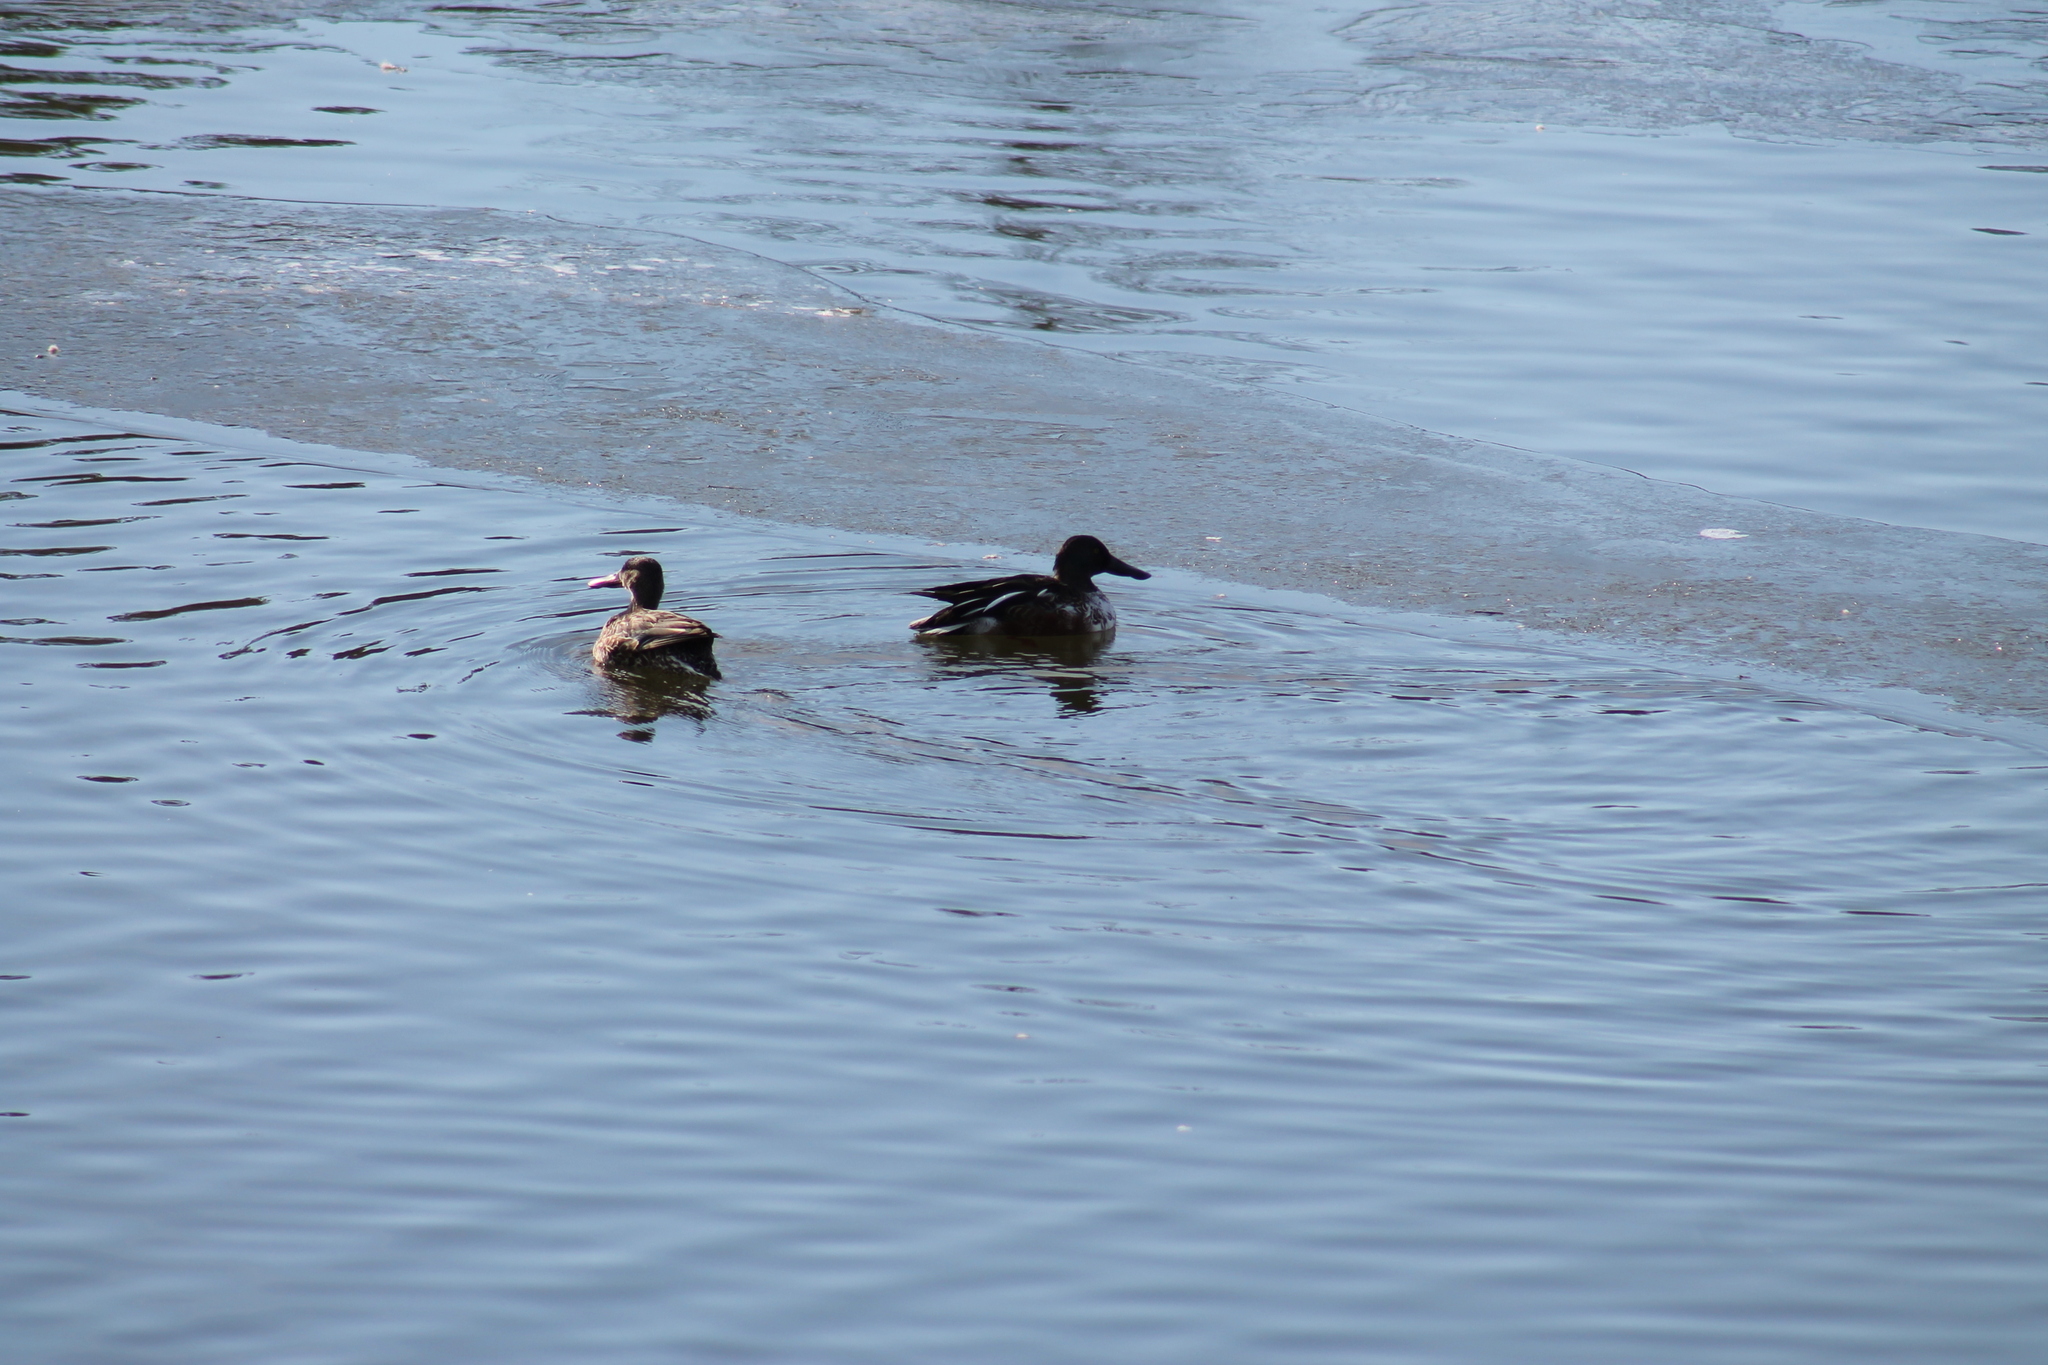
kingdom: Animalia
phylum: Chordata
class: Aves
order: Anseriformes
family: Anatidae
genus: Spatula
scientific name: Spatula clypeata
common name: Northern shoveler
